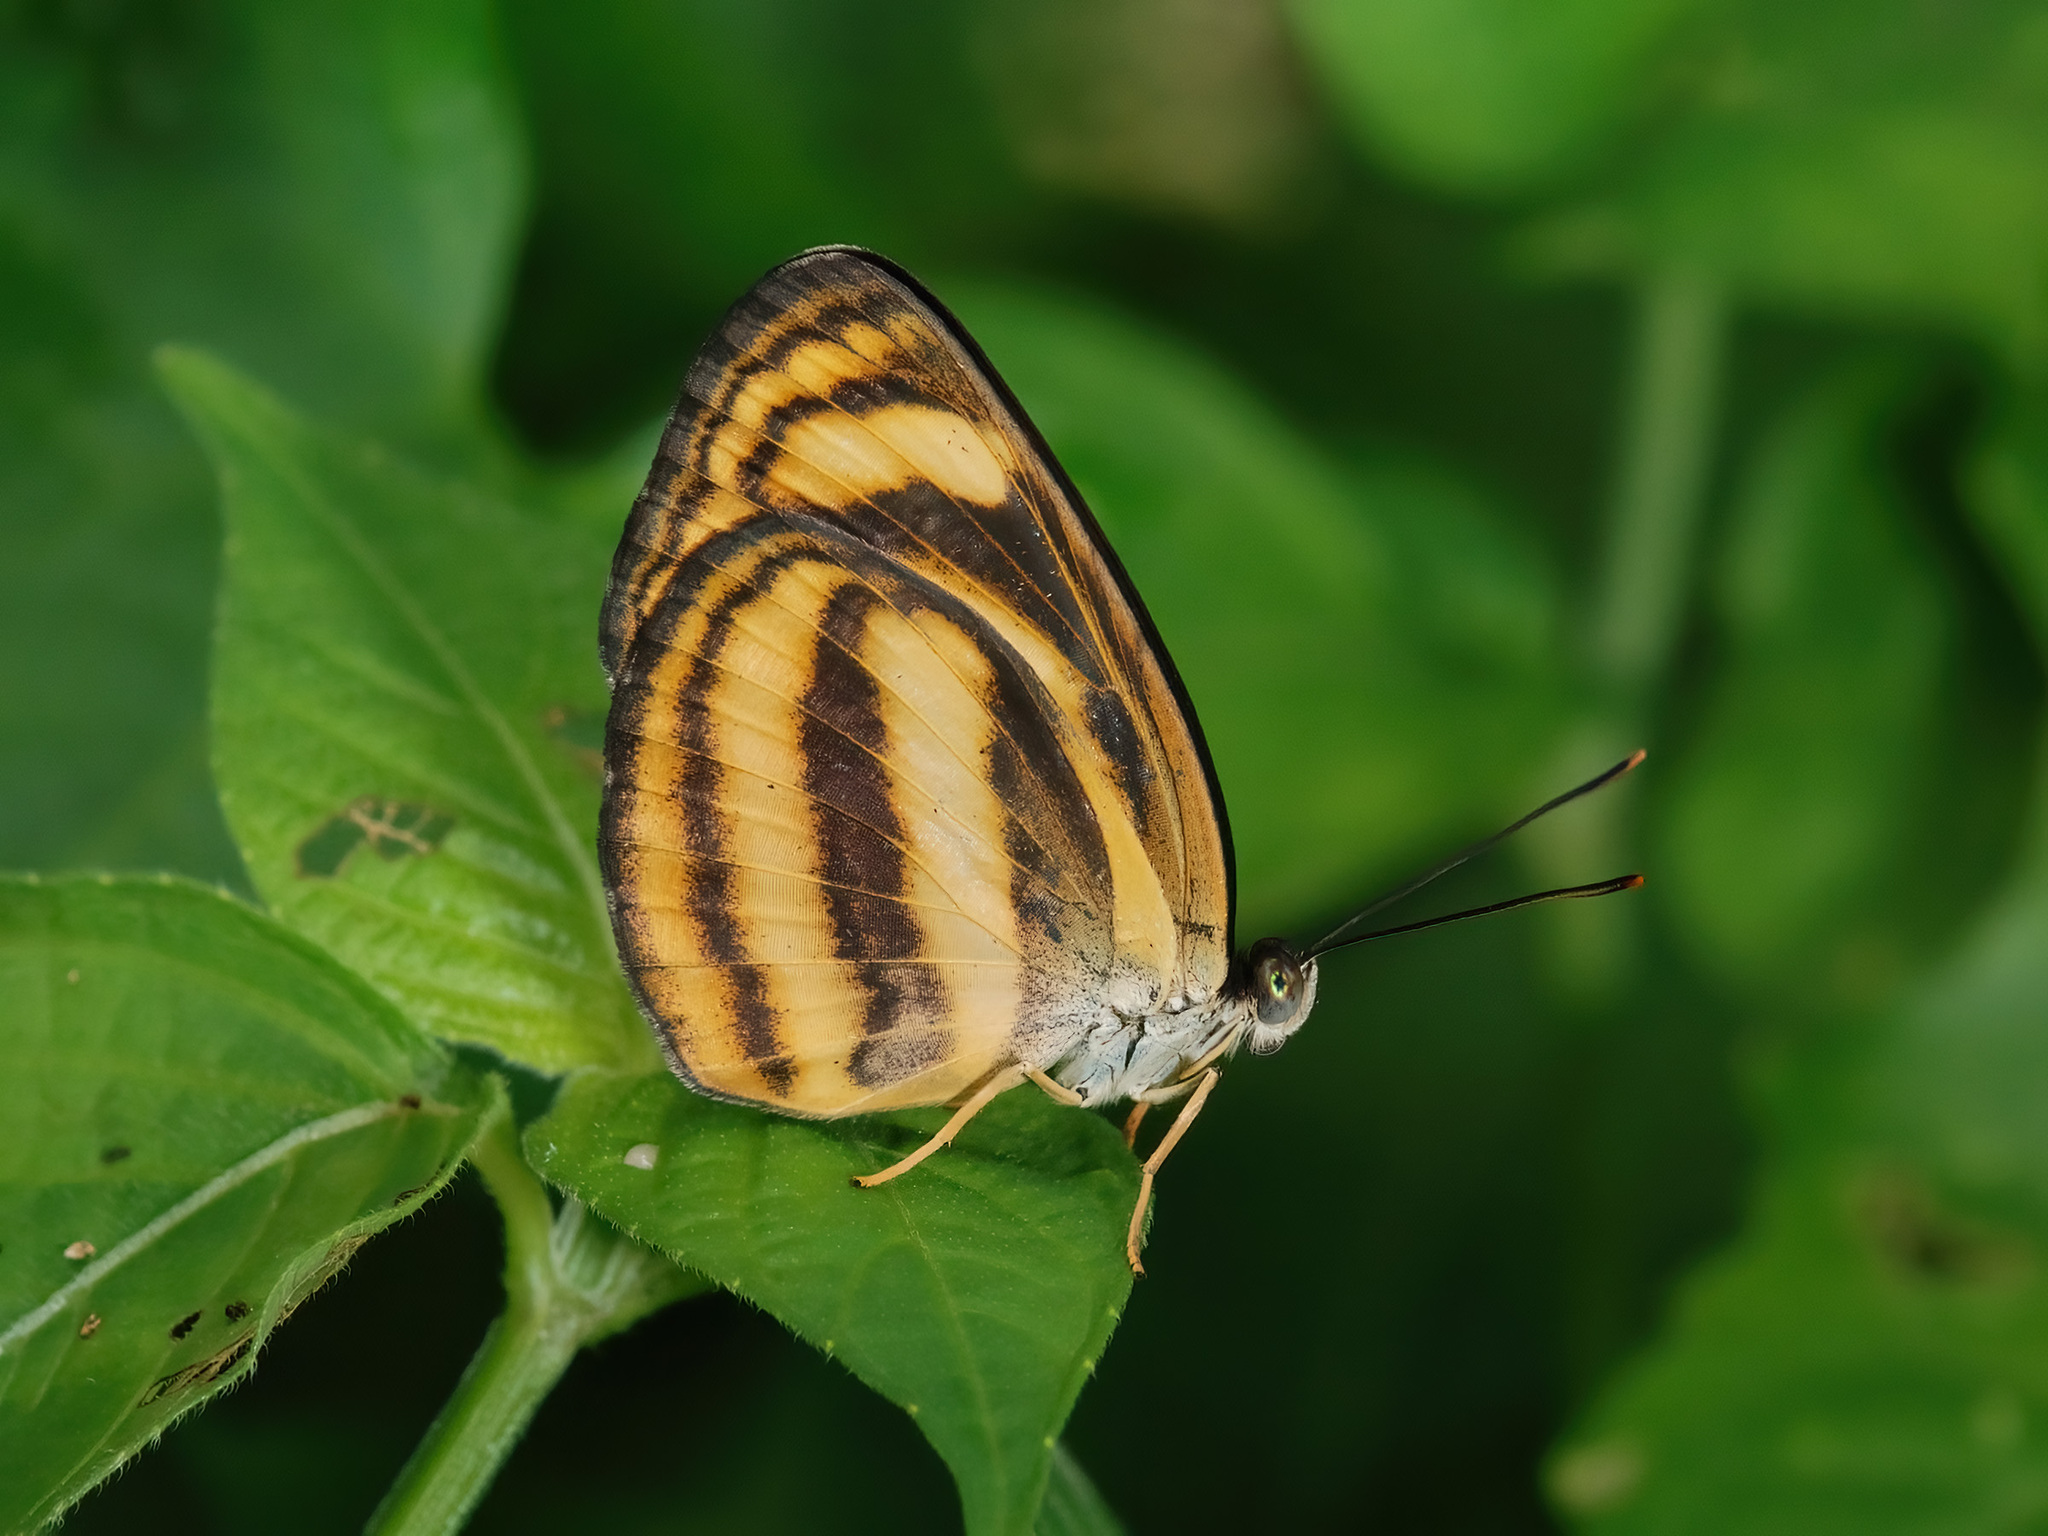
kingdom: Animalia
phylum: Arthropoda
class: Insecta
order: Lepidoptera
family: Nymphalidae
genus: Lasippa
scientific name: Lasippa tiga
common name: Malayan lascar
